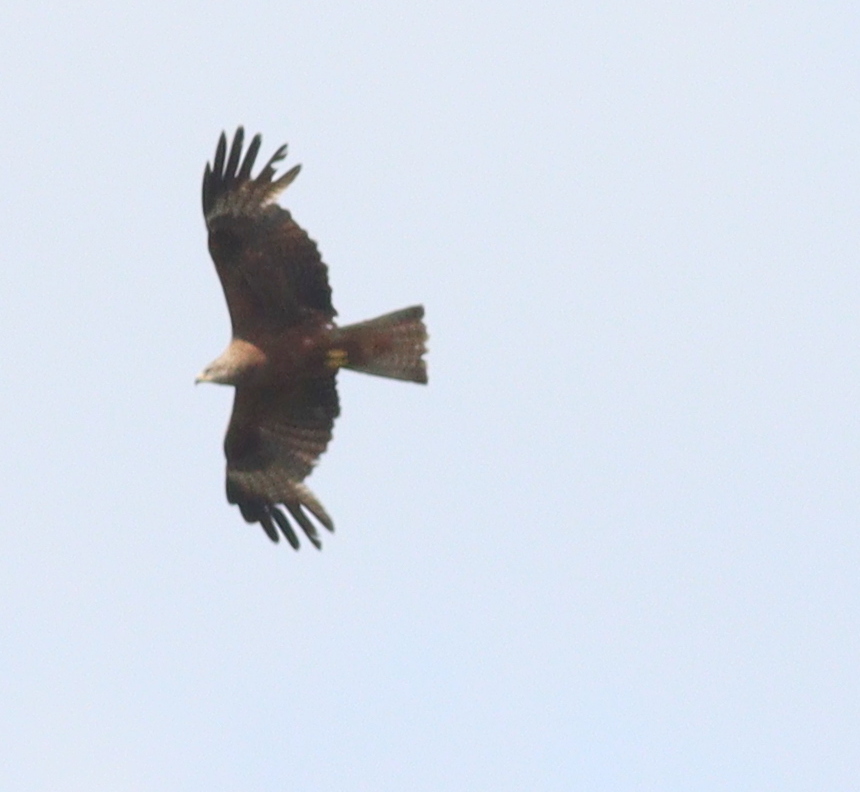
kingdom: Animalia
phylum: Chordata
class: Aves
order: Accipitriformes
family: Accipitridae
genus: Milvus
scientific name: Milvus migrans
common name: Black kite
